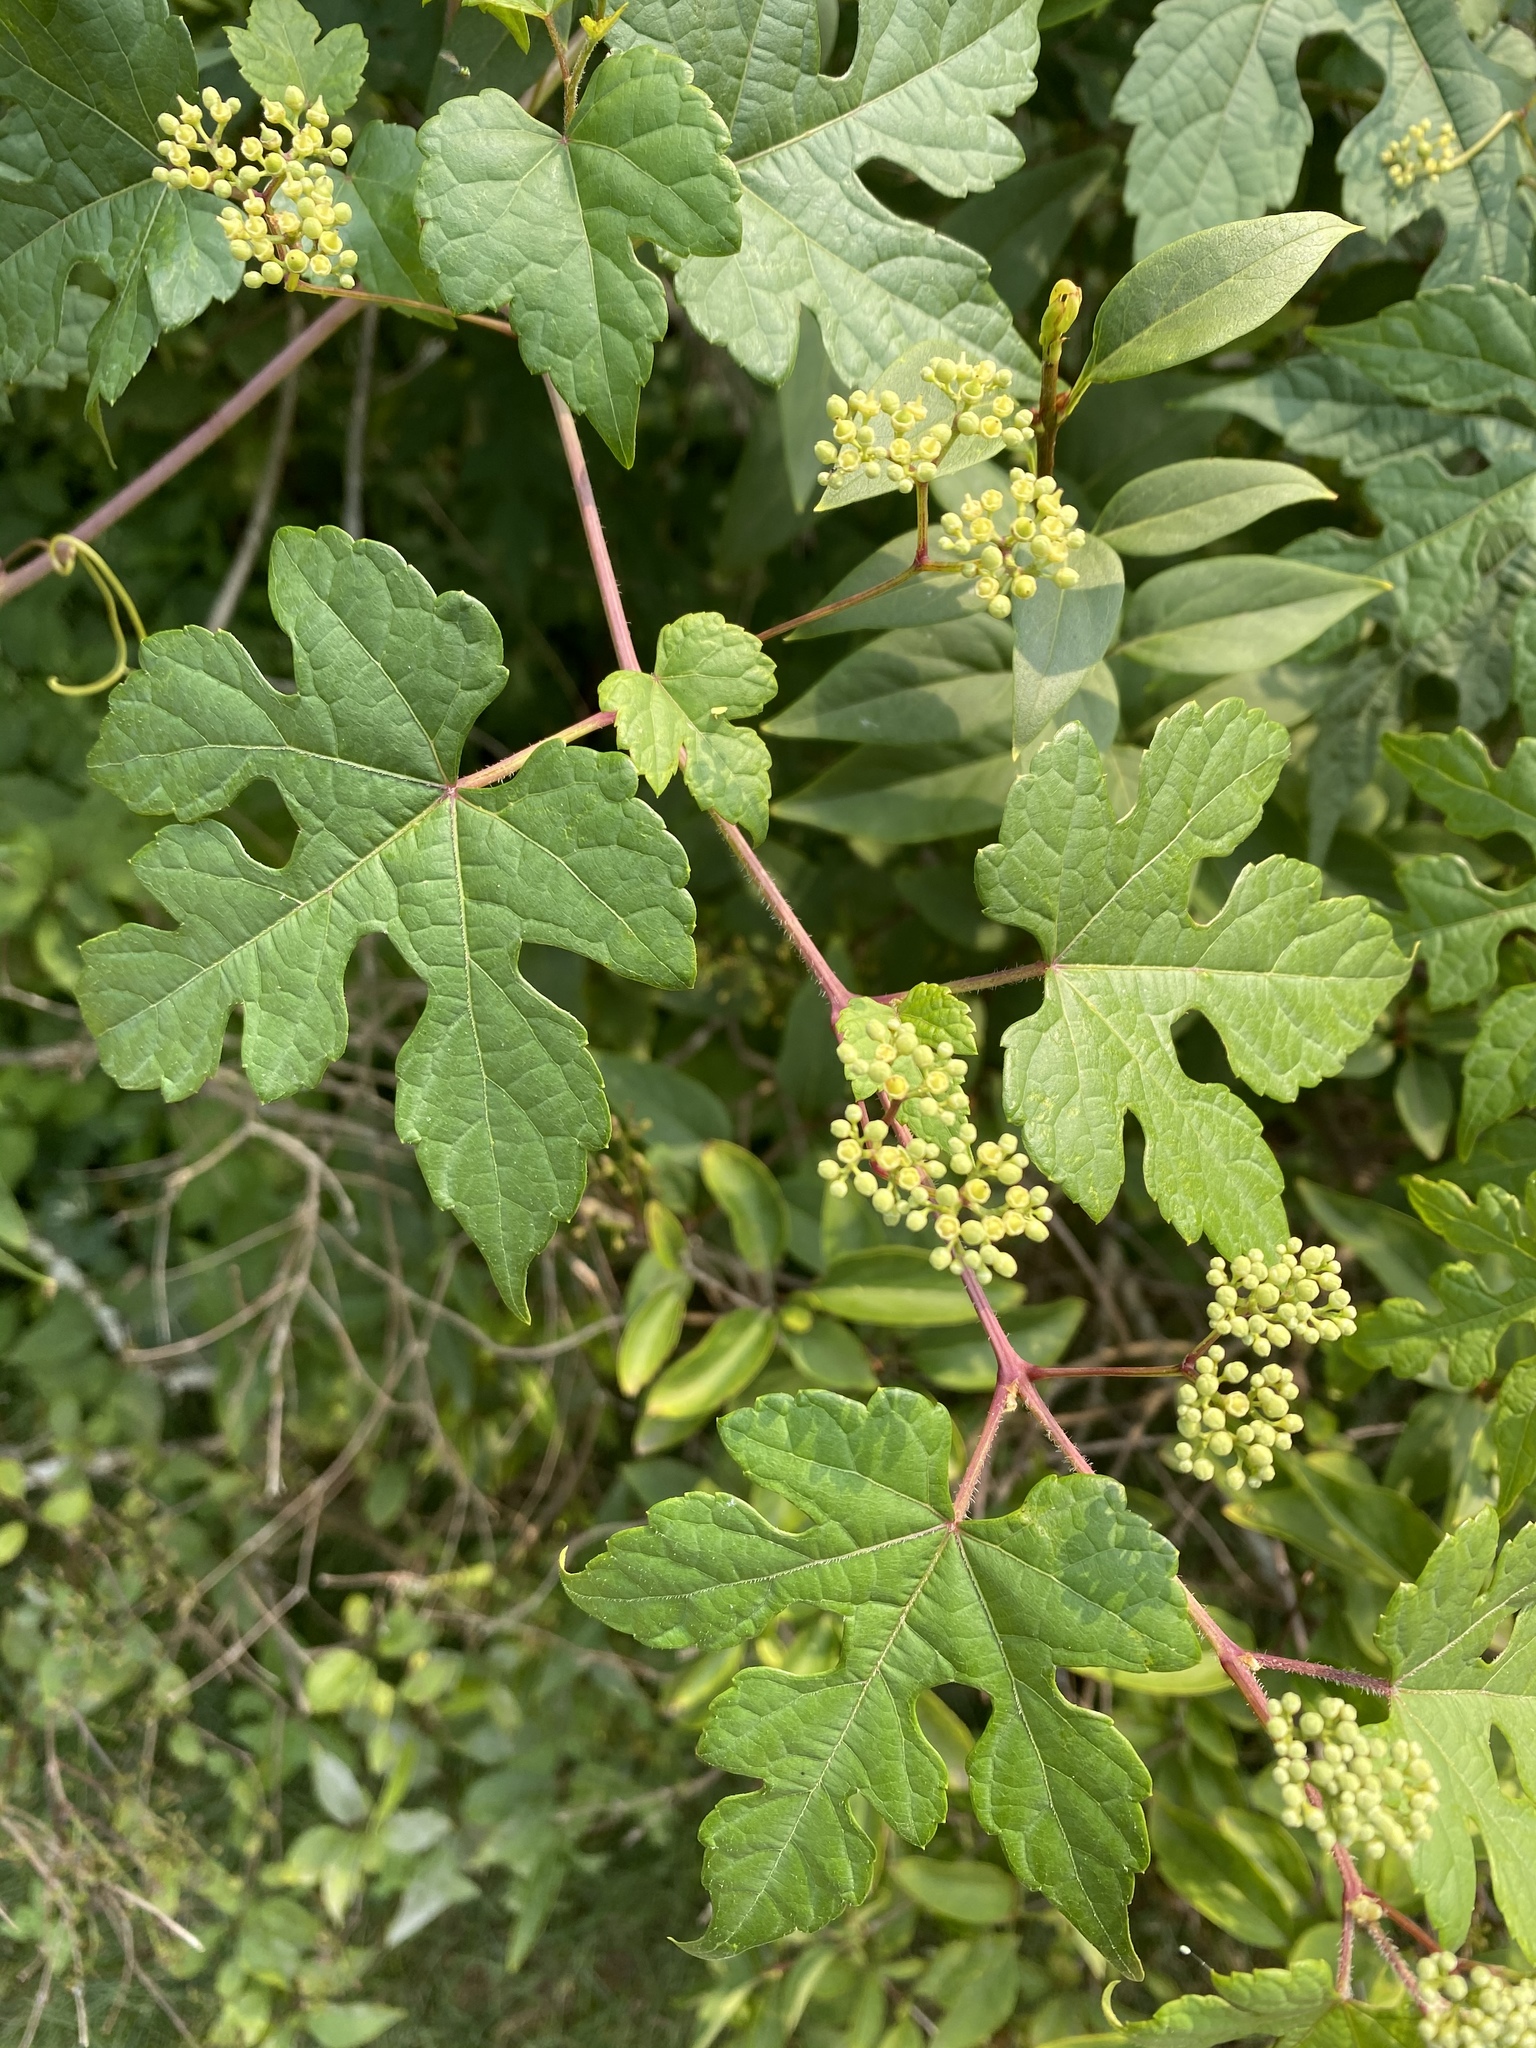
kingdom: Plantae
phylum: Tracheophyta
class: Magnoliopsida
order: Vitales
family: Vitaceae
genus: Ampelopsis
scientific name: Ampelopsis glandulosa
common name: Amur peppervine
